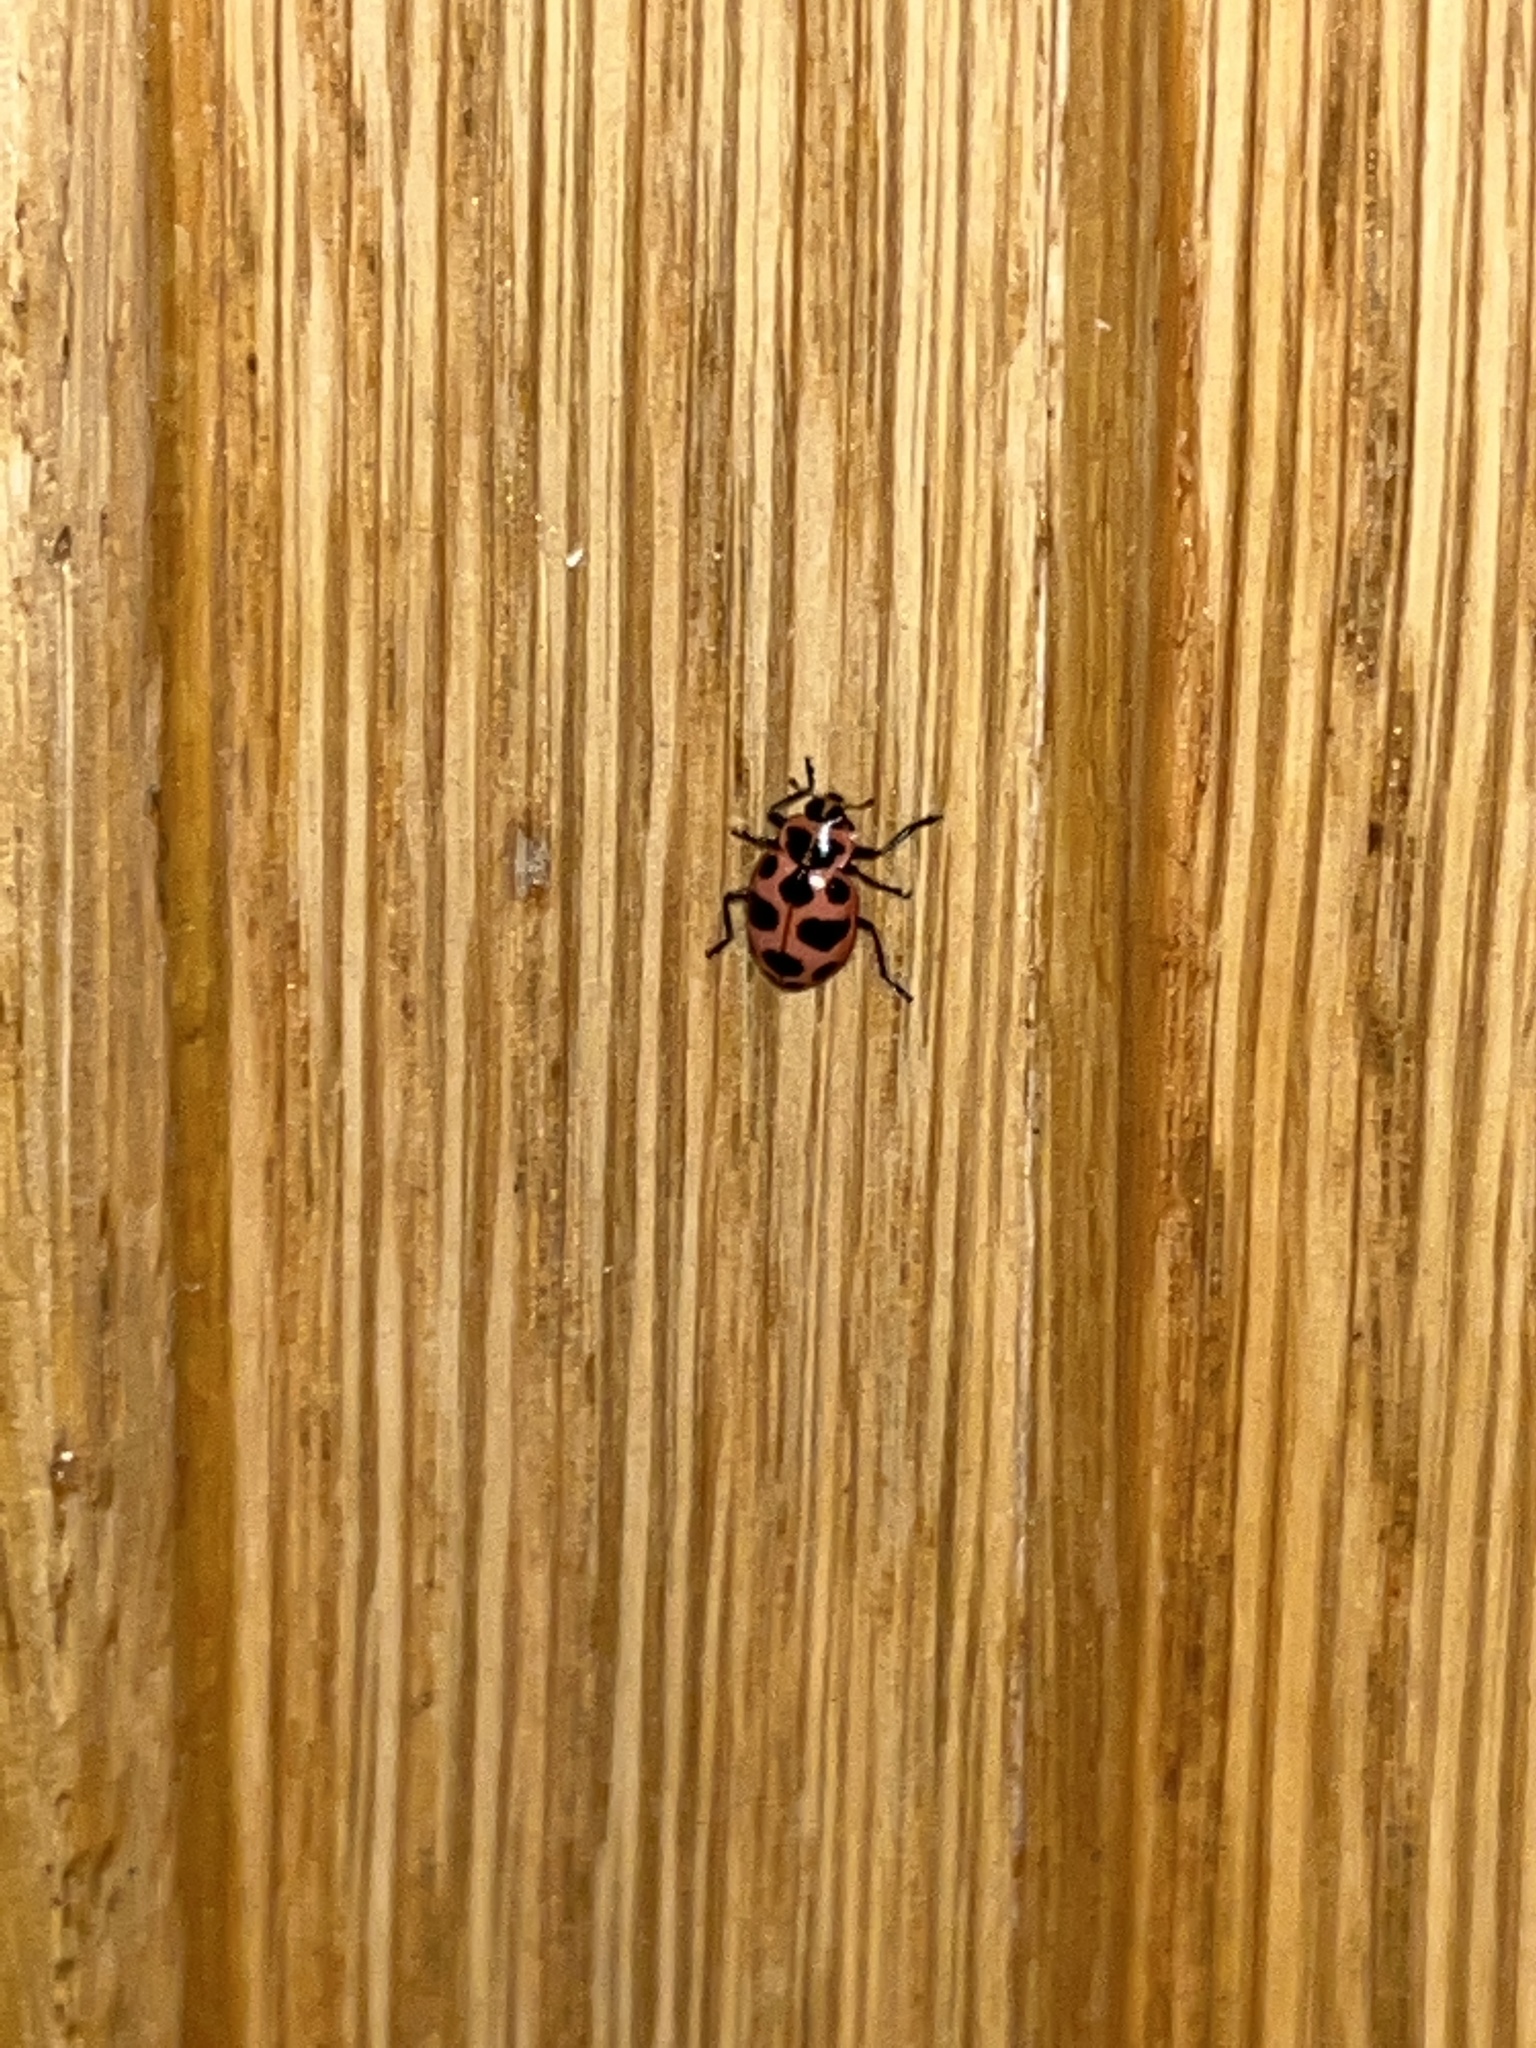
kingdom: Animalia
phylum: Arthropoda
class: Insecta
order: Coleoptera
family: Coccinellidae
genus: Coleomegilla
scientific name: Coleomegilla maculata
